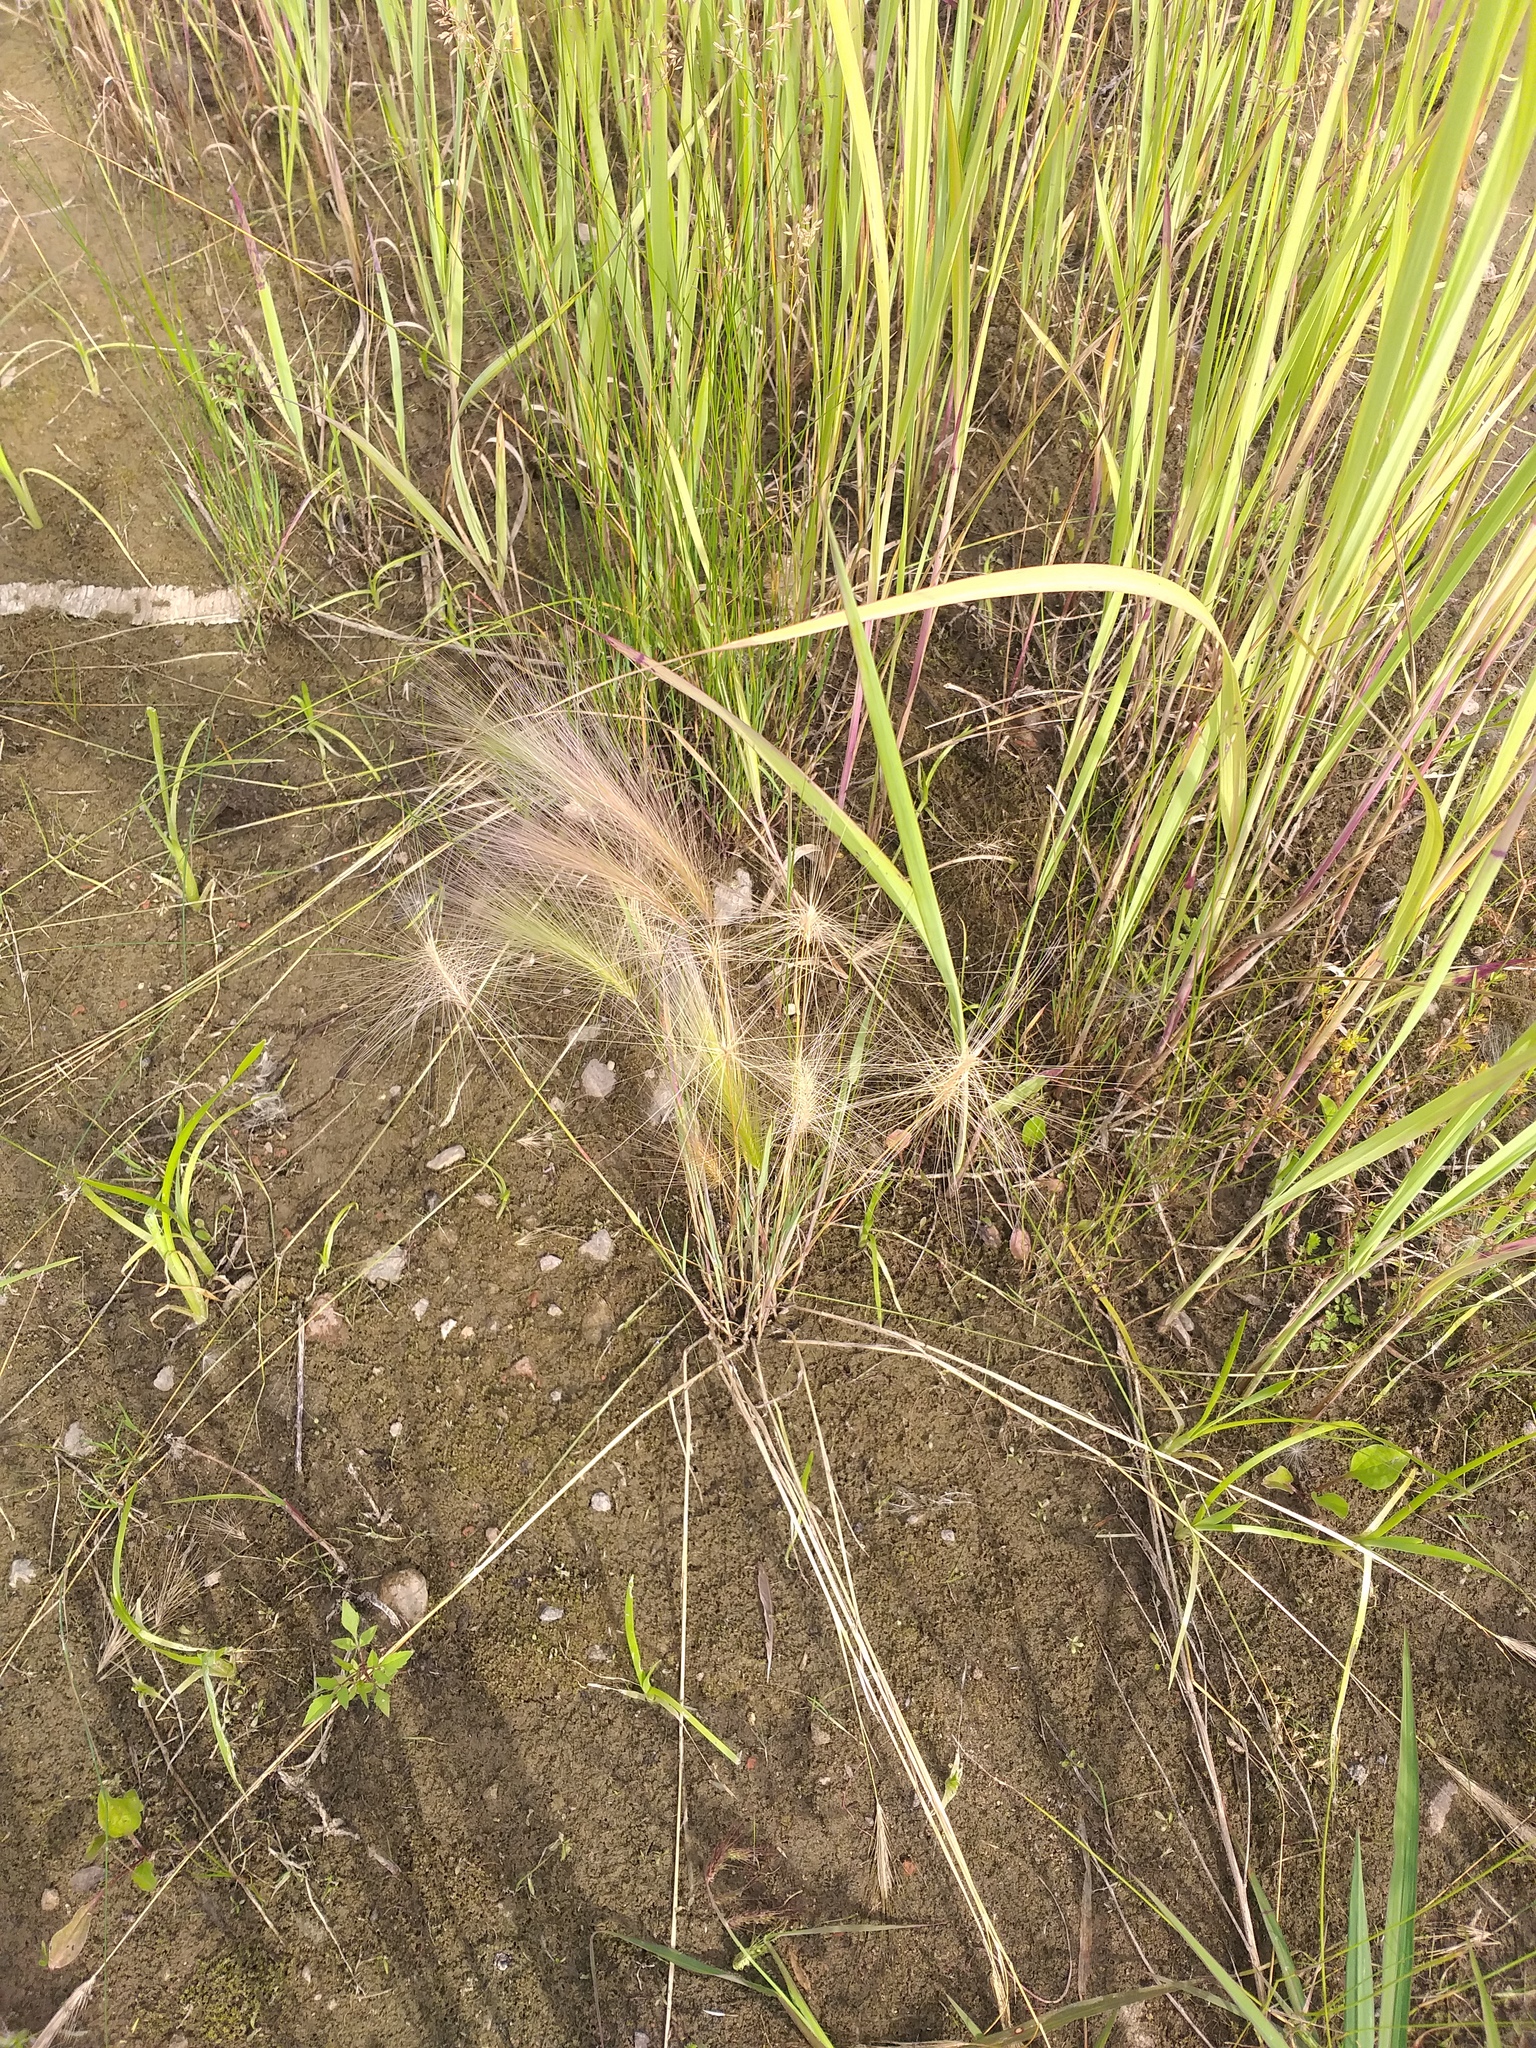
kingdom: Plantae
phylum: Tracheophyta
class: Liliopsida
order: Poales
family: Poaceae
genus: Hordeum
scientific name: Hordeum jubatum
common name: Foxtail barley
